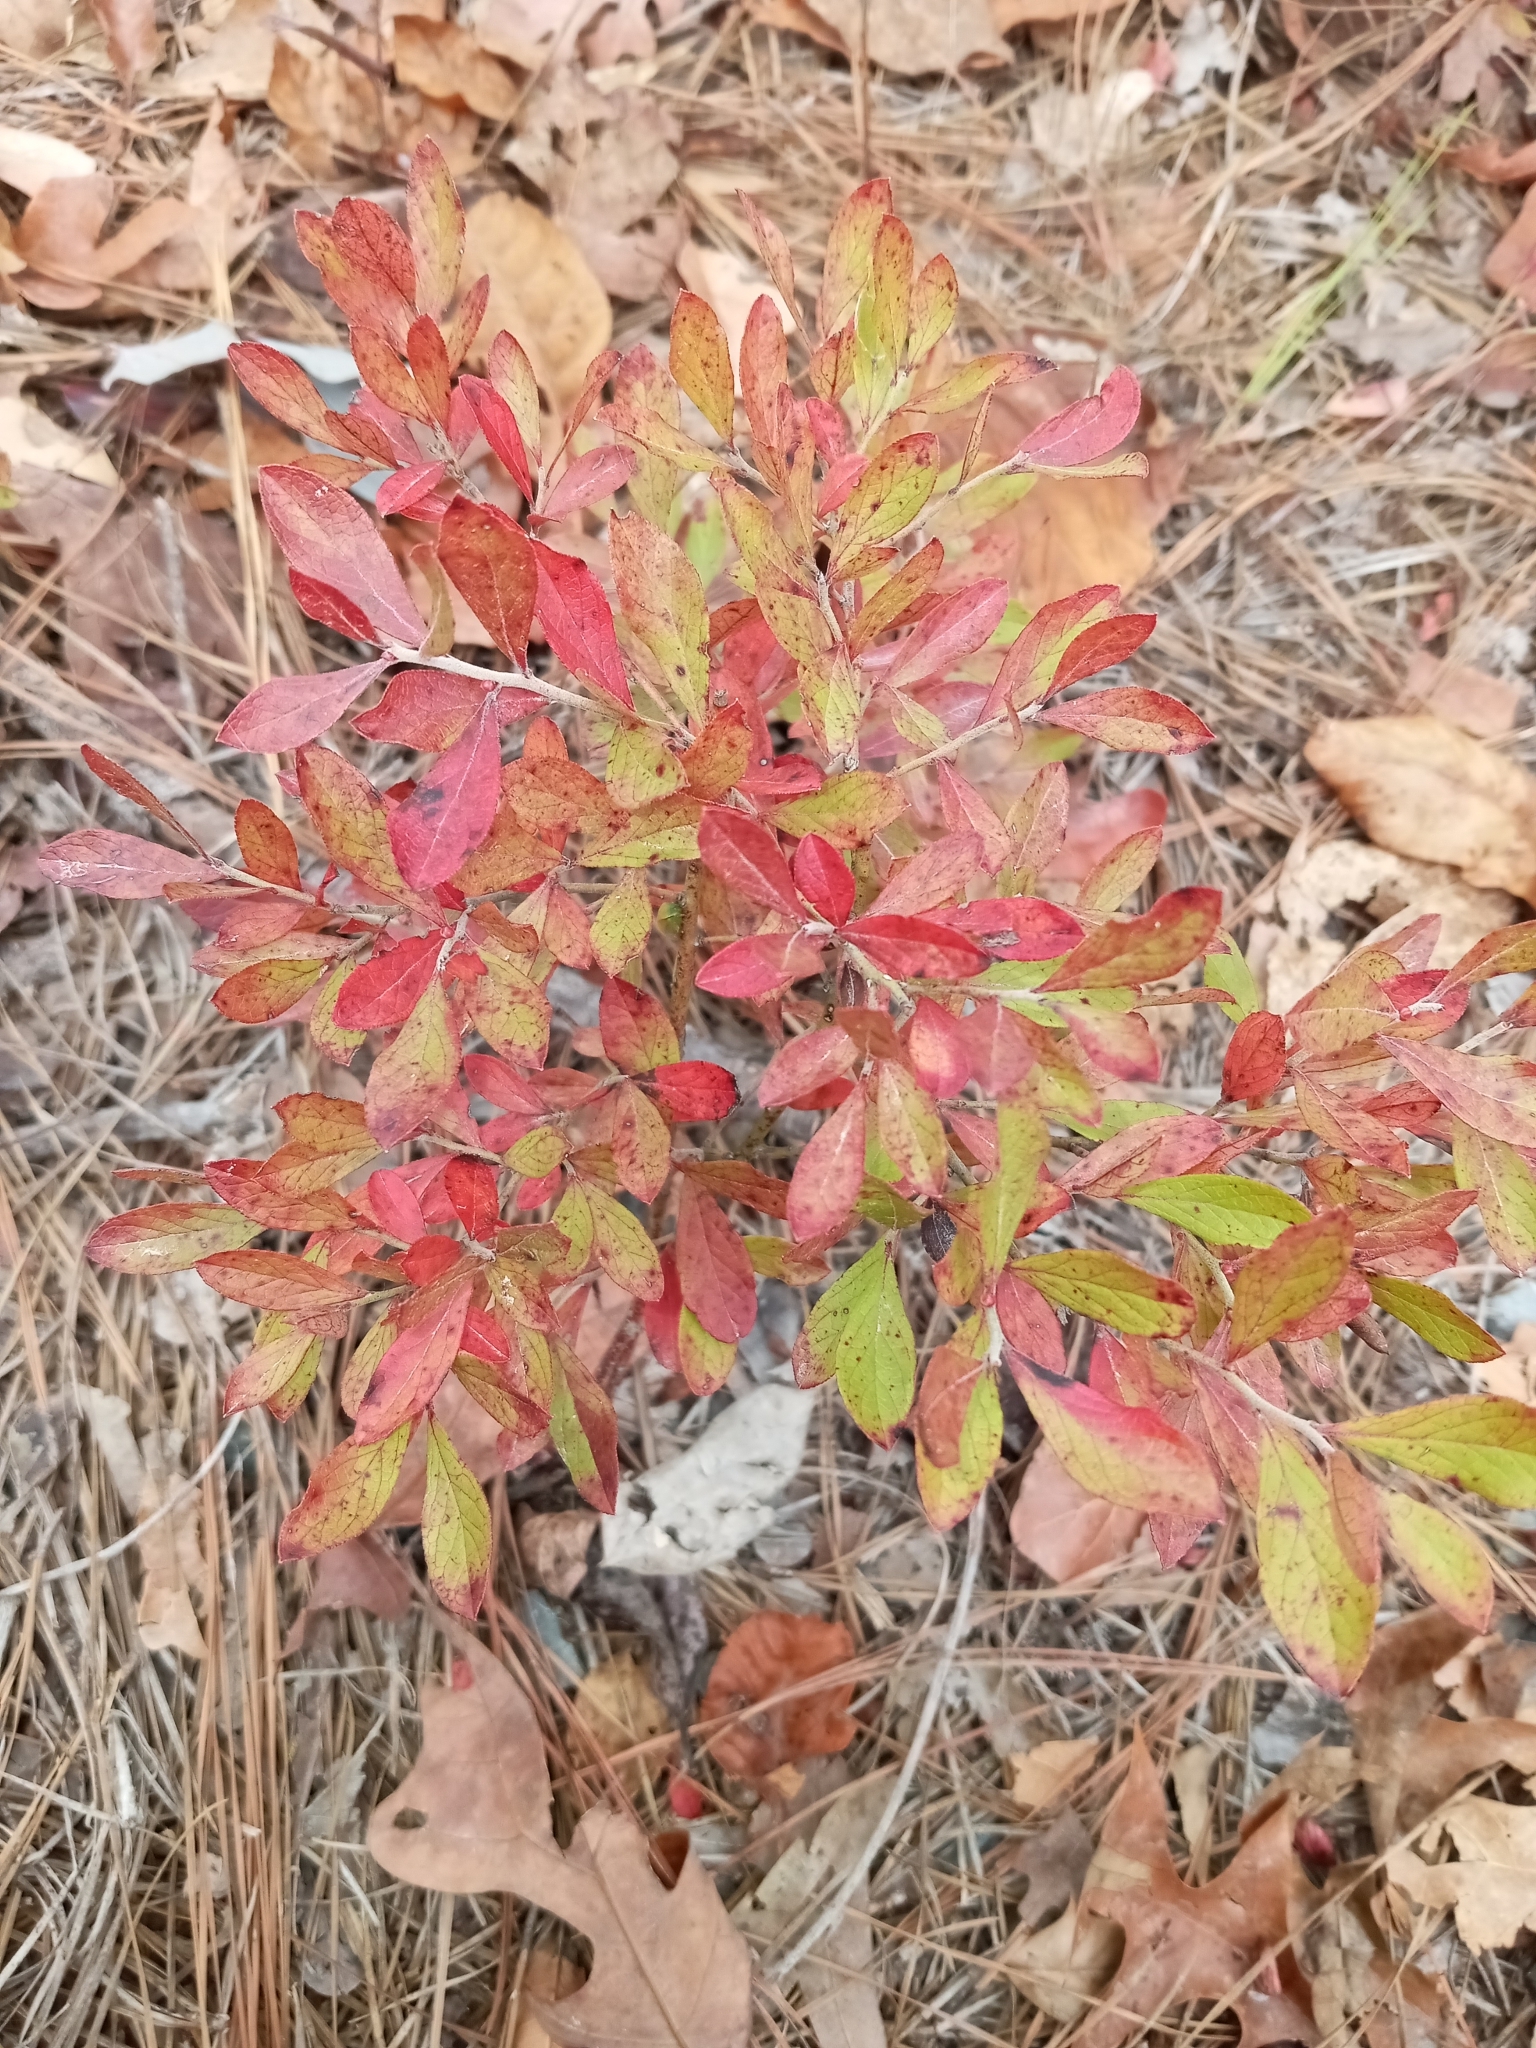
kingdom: Plantae
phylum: Tracheophyta
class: Magnoliopsida
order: Ericales
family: Ericaceae
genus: Vaccinium
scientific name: Vaccinium tenellum
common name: Southern blueberry
